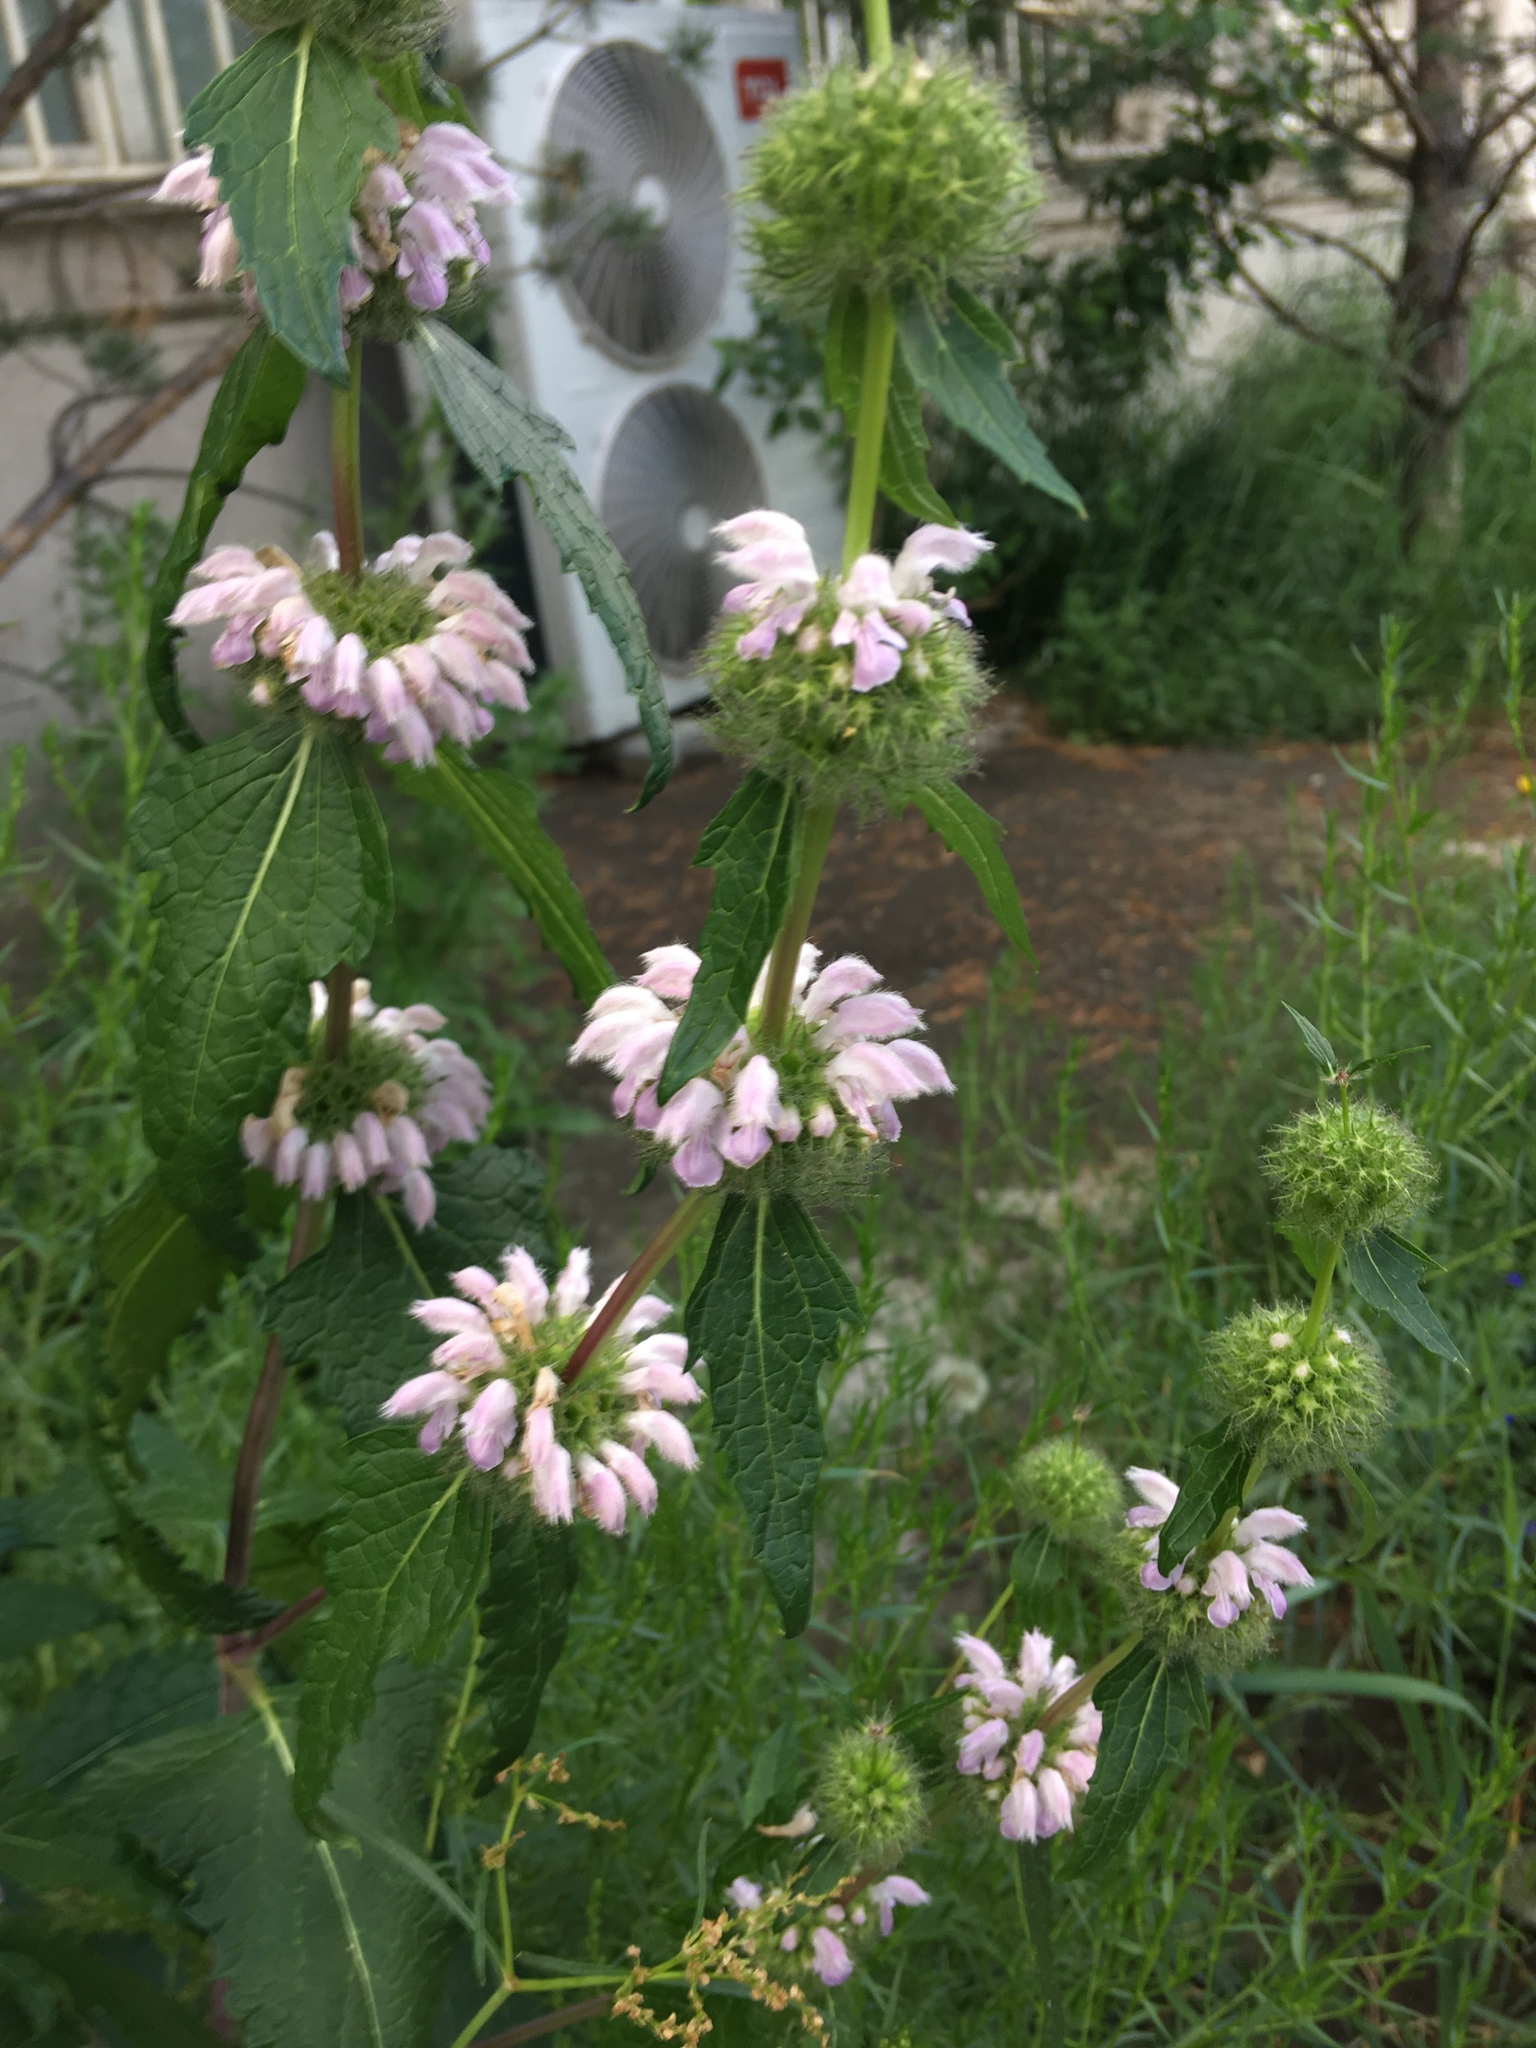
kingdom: Plantae
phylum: Tracheophyta
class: Magnoliopsida
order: Lamiales
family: Lamiaceae
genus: Phlomoides
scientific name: Phlomoides tuberosa
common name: Tuberous jerusalem sage
